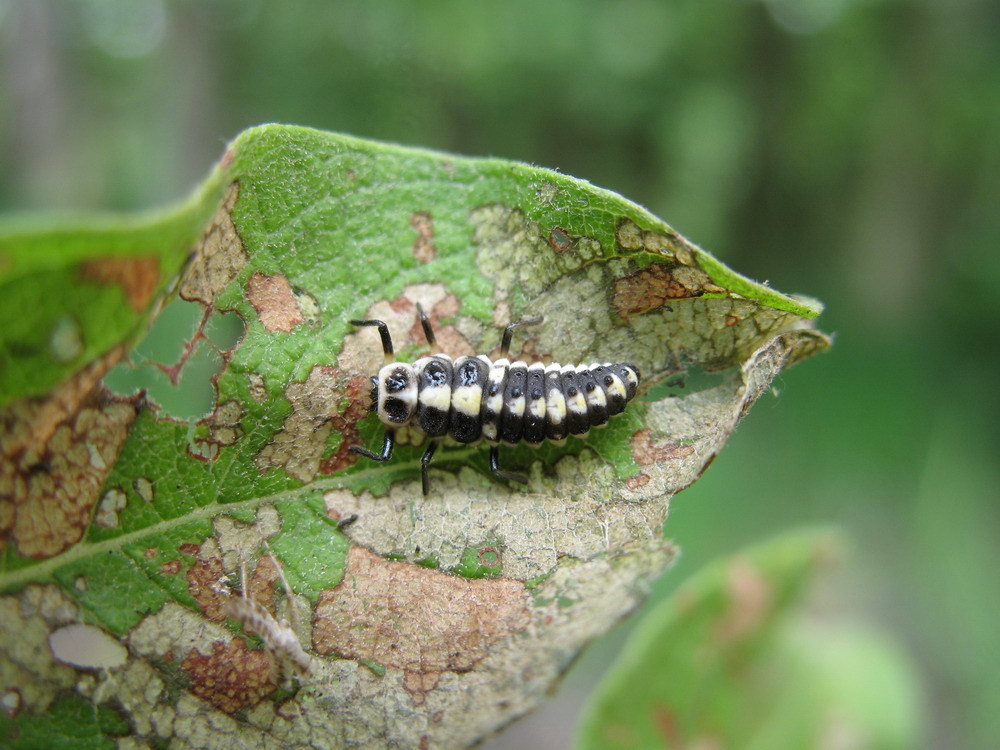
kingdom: Animalia
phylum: Arthropoda
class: Insecta
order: Coleoptera
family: Coccinellidae
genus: Calvia
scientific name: Calvia quindecimguttata
